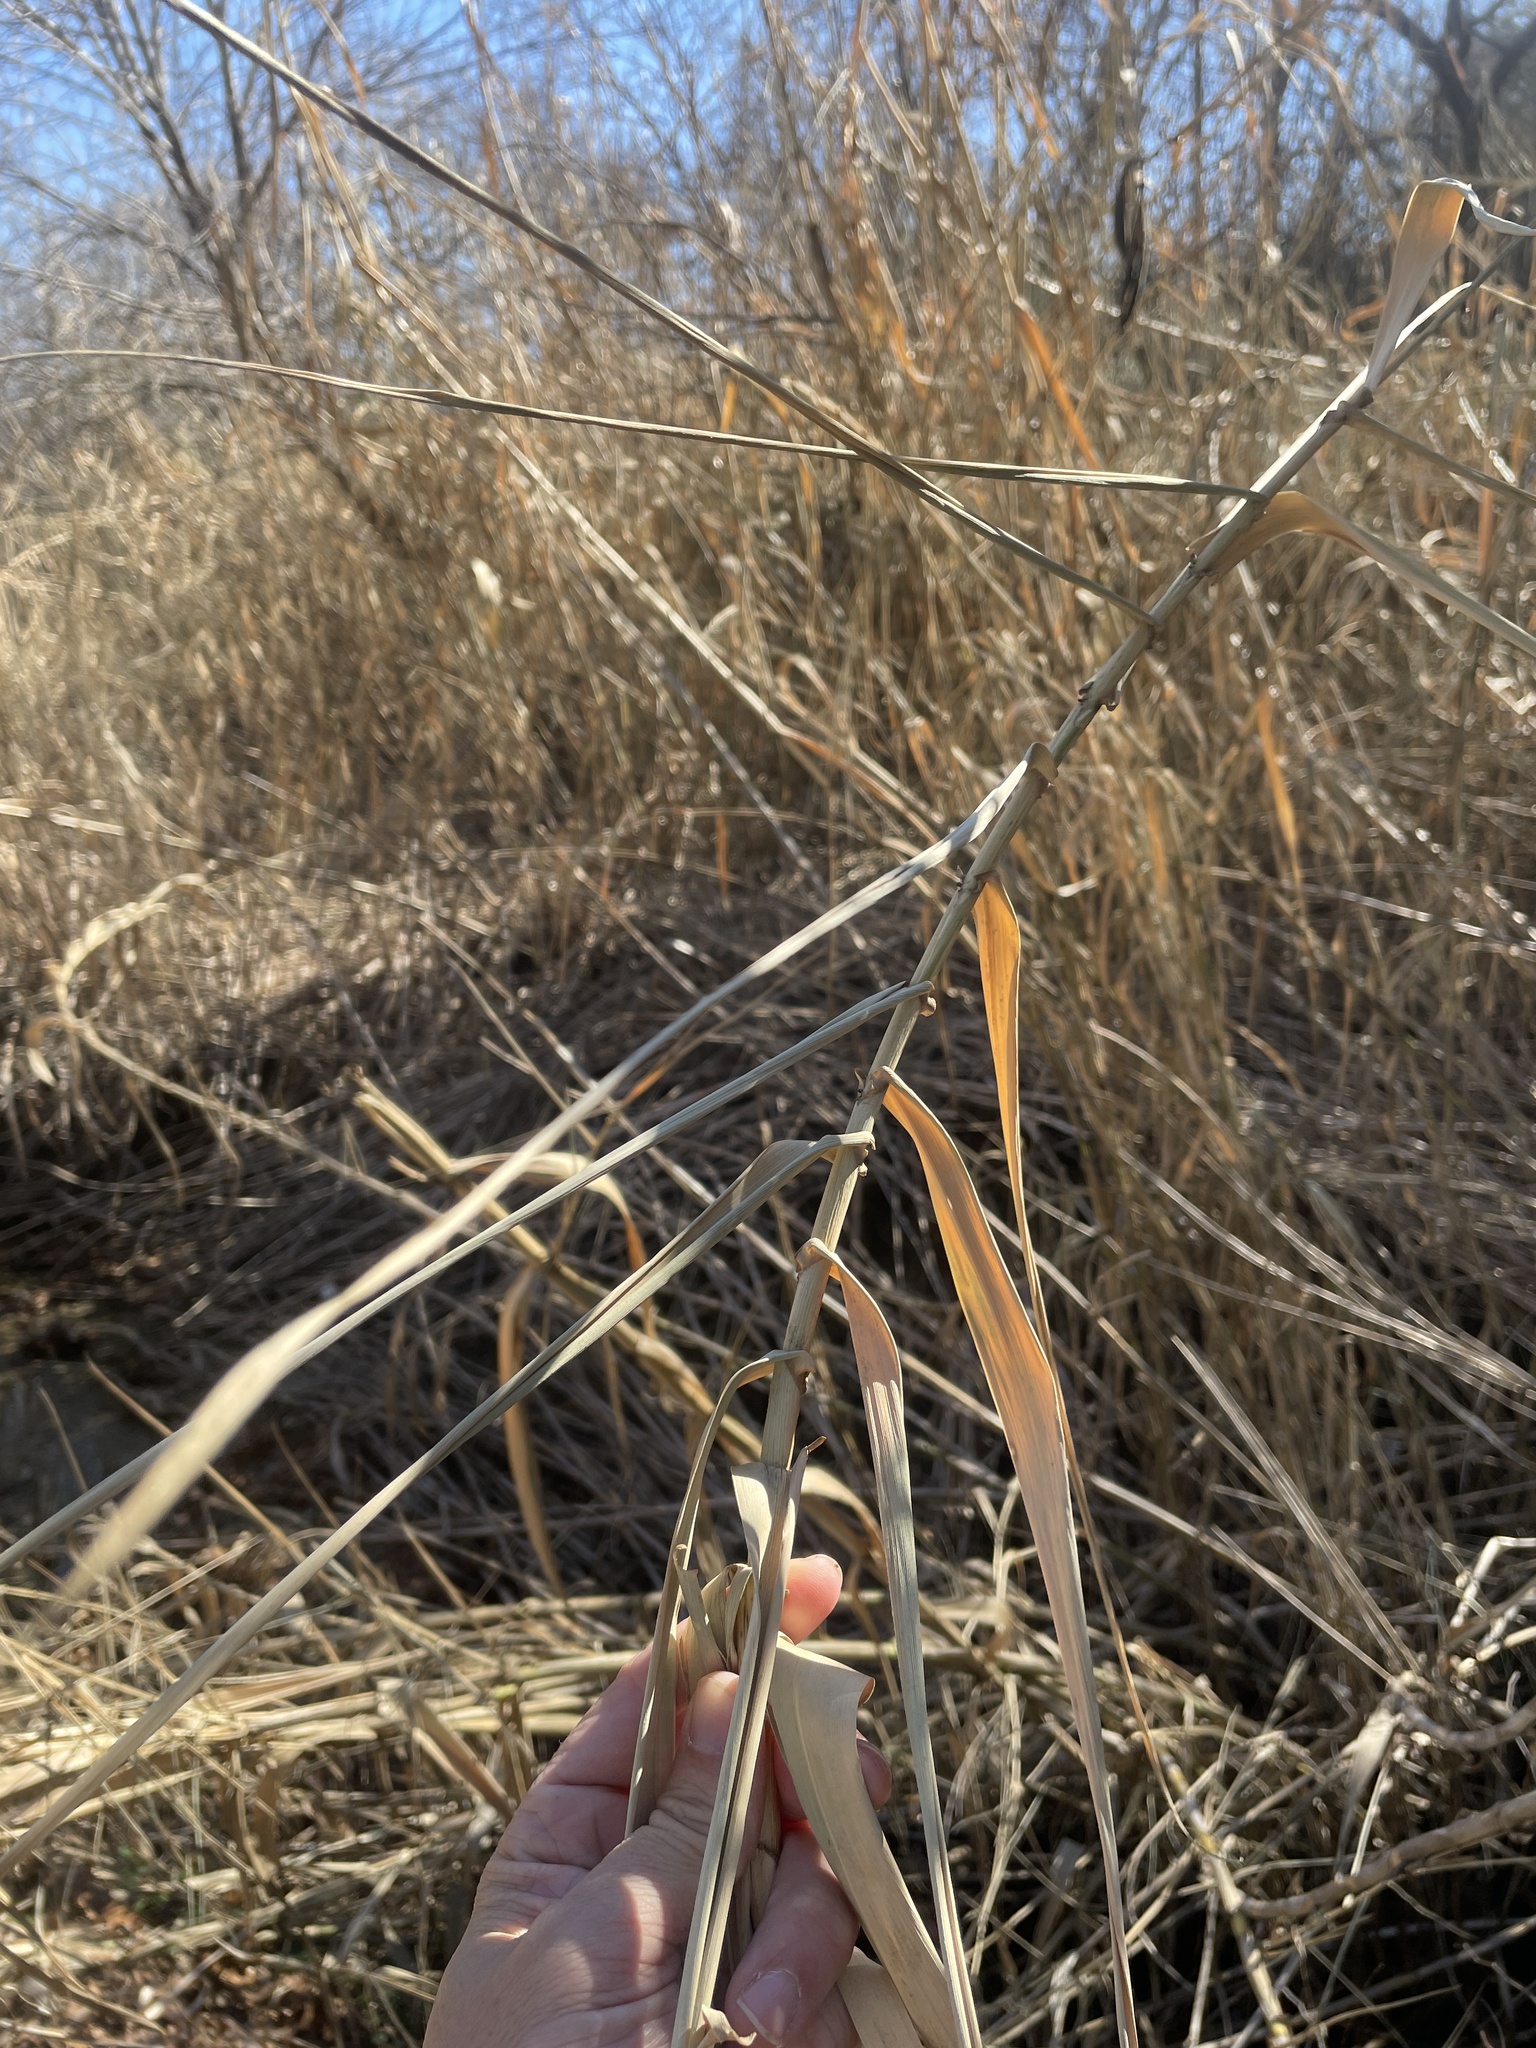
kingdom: Plantae
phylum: Tracheophyta
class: Liliopsida
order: Poales
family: Poaceae
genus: Arundo
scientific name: Arundo donax
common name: Giant reed
